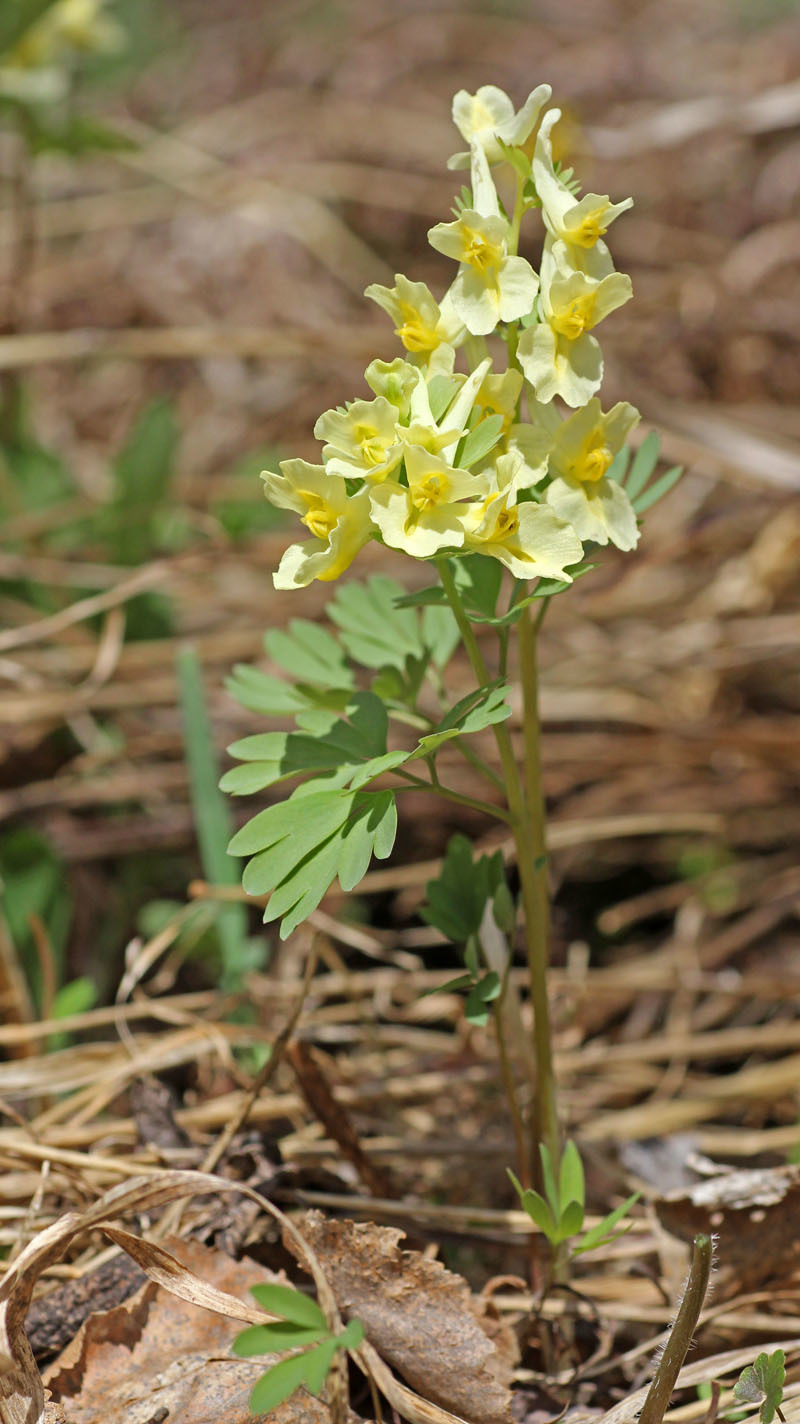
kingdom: Plantae
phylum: Tracheophyta
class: Magnoliopsida
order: Ranunculales
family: Papaveraceae
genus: Corydalis
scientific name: Corydalis bracteata
